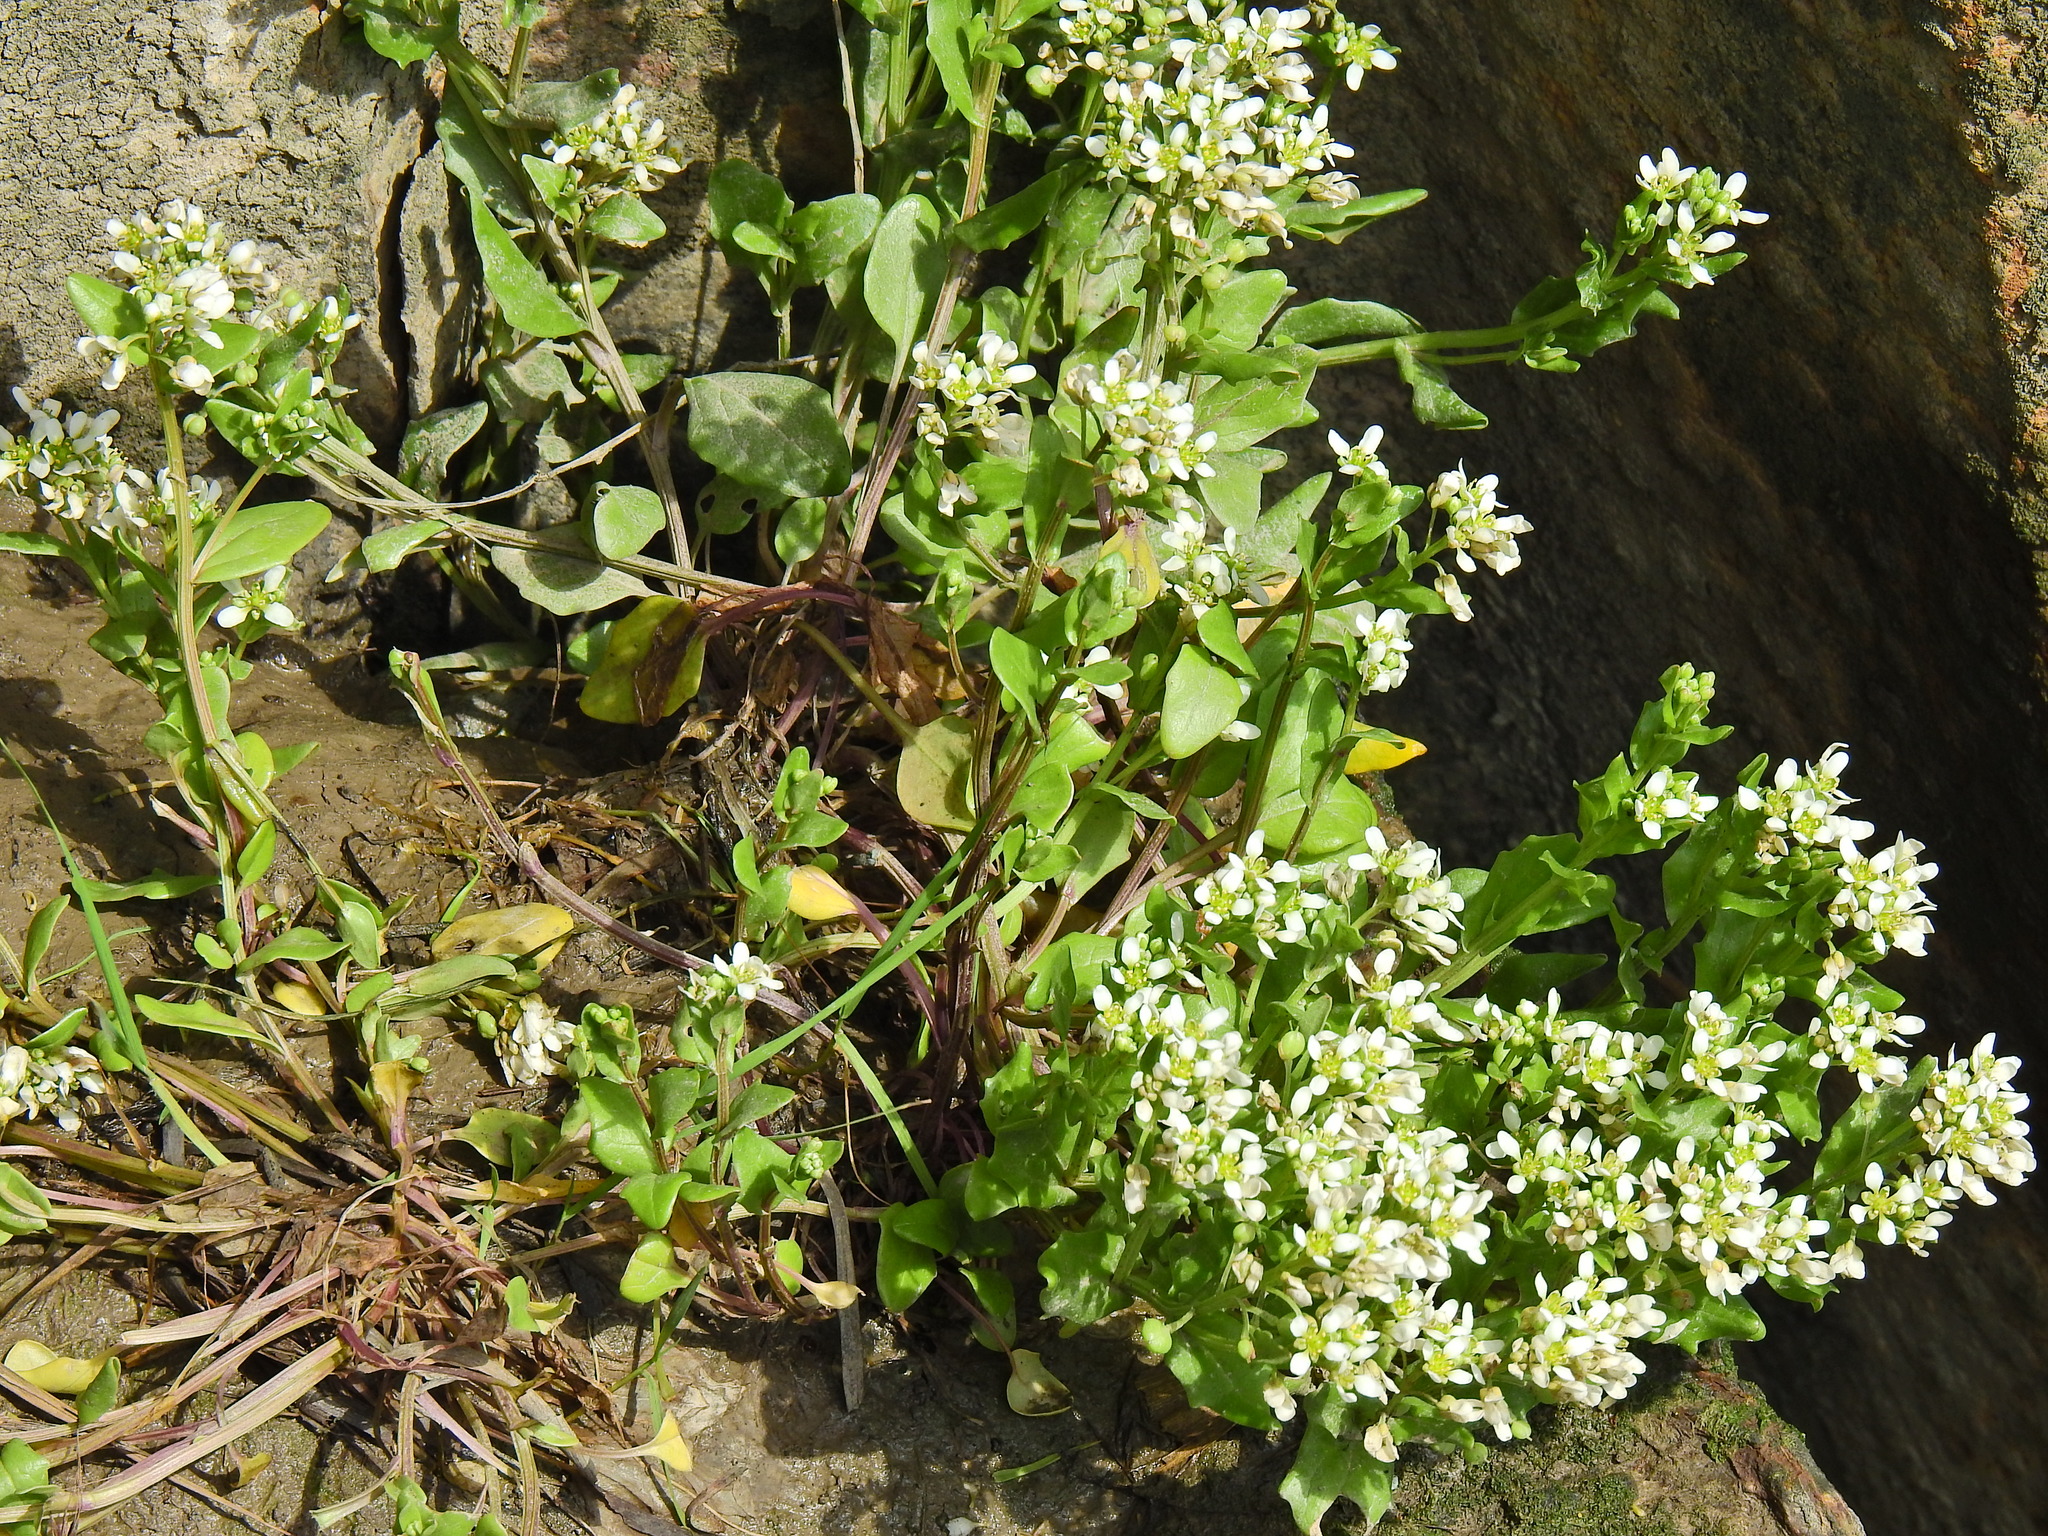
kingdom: Plantae
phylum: Tracheophyta
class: Magnoliopsida
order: Brassicales
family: Brassicaceae
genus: Cochlearia
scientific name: Cochlearia hollandica
